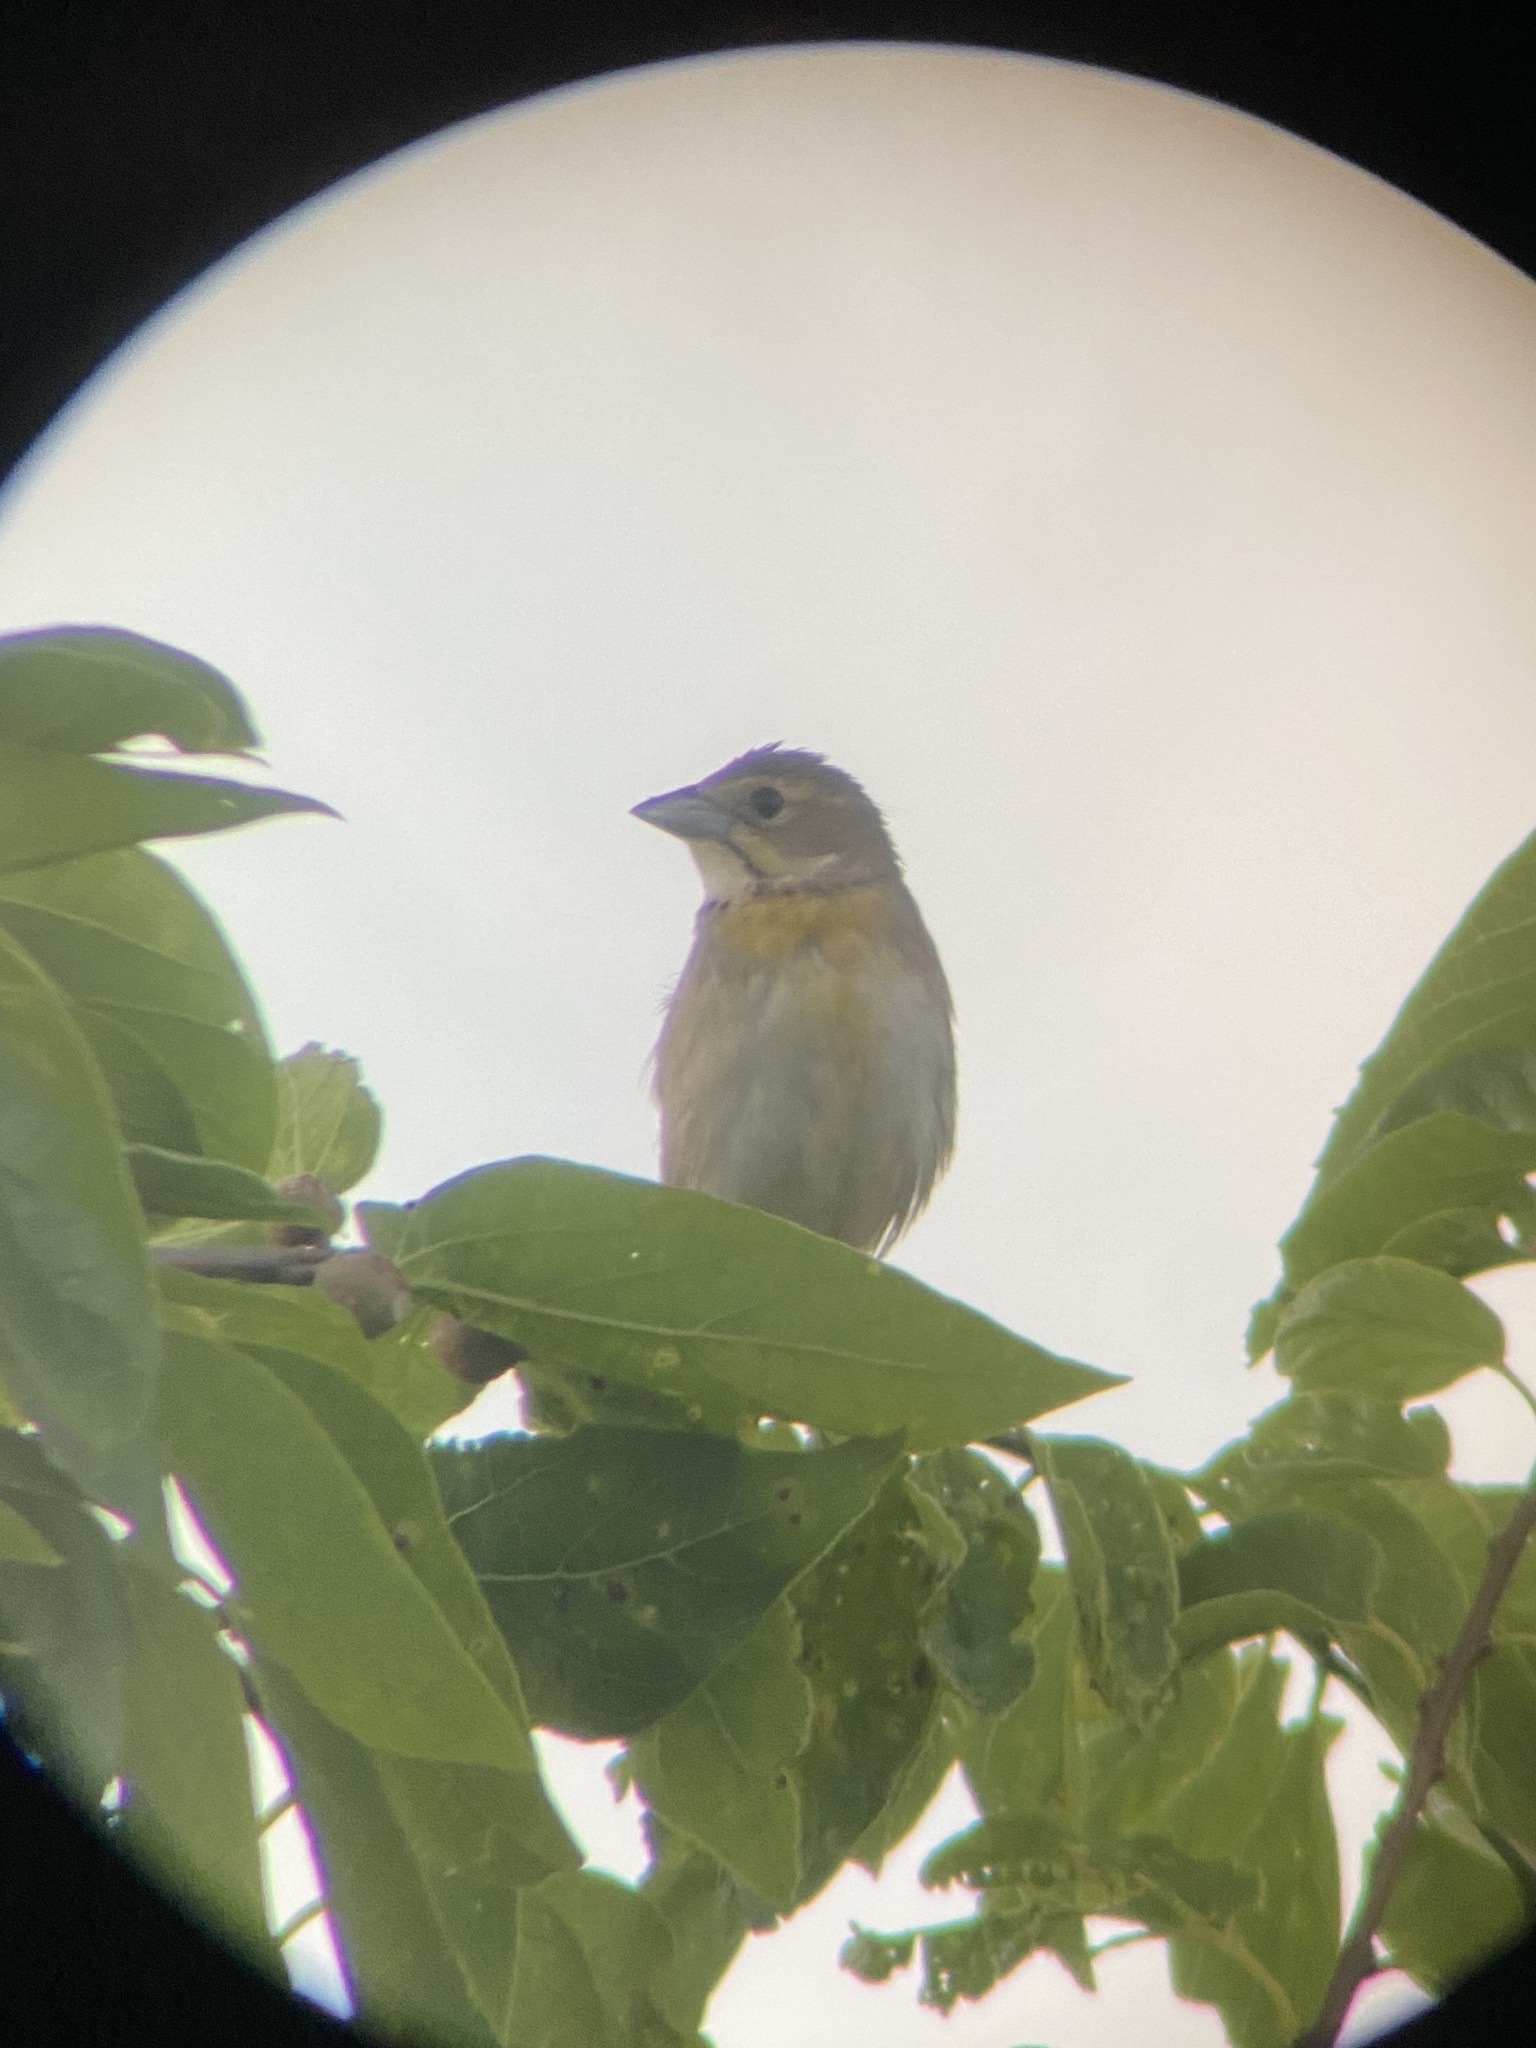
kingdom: Animalia
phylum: Chordata
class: Aves
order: Passeriformes
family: Cardinalidae
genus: Spiza
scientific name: Spiza americana
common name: Dickcissel
